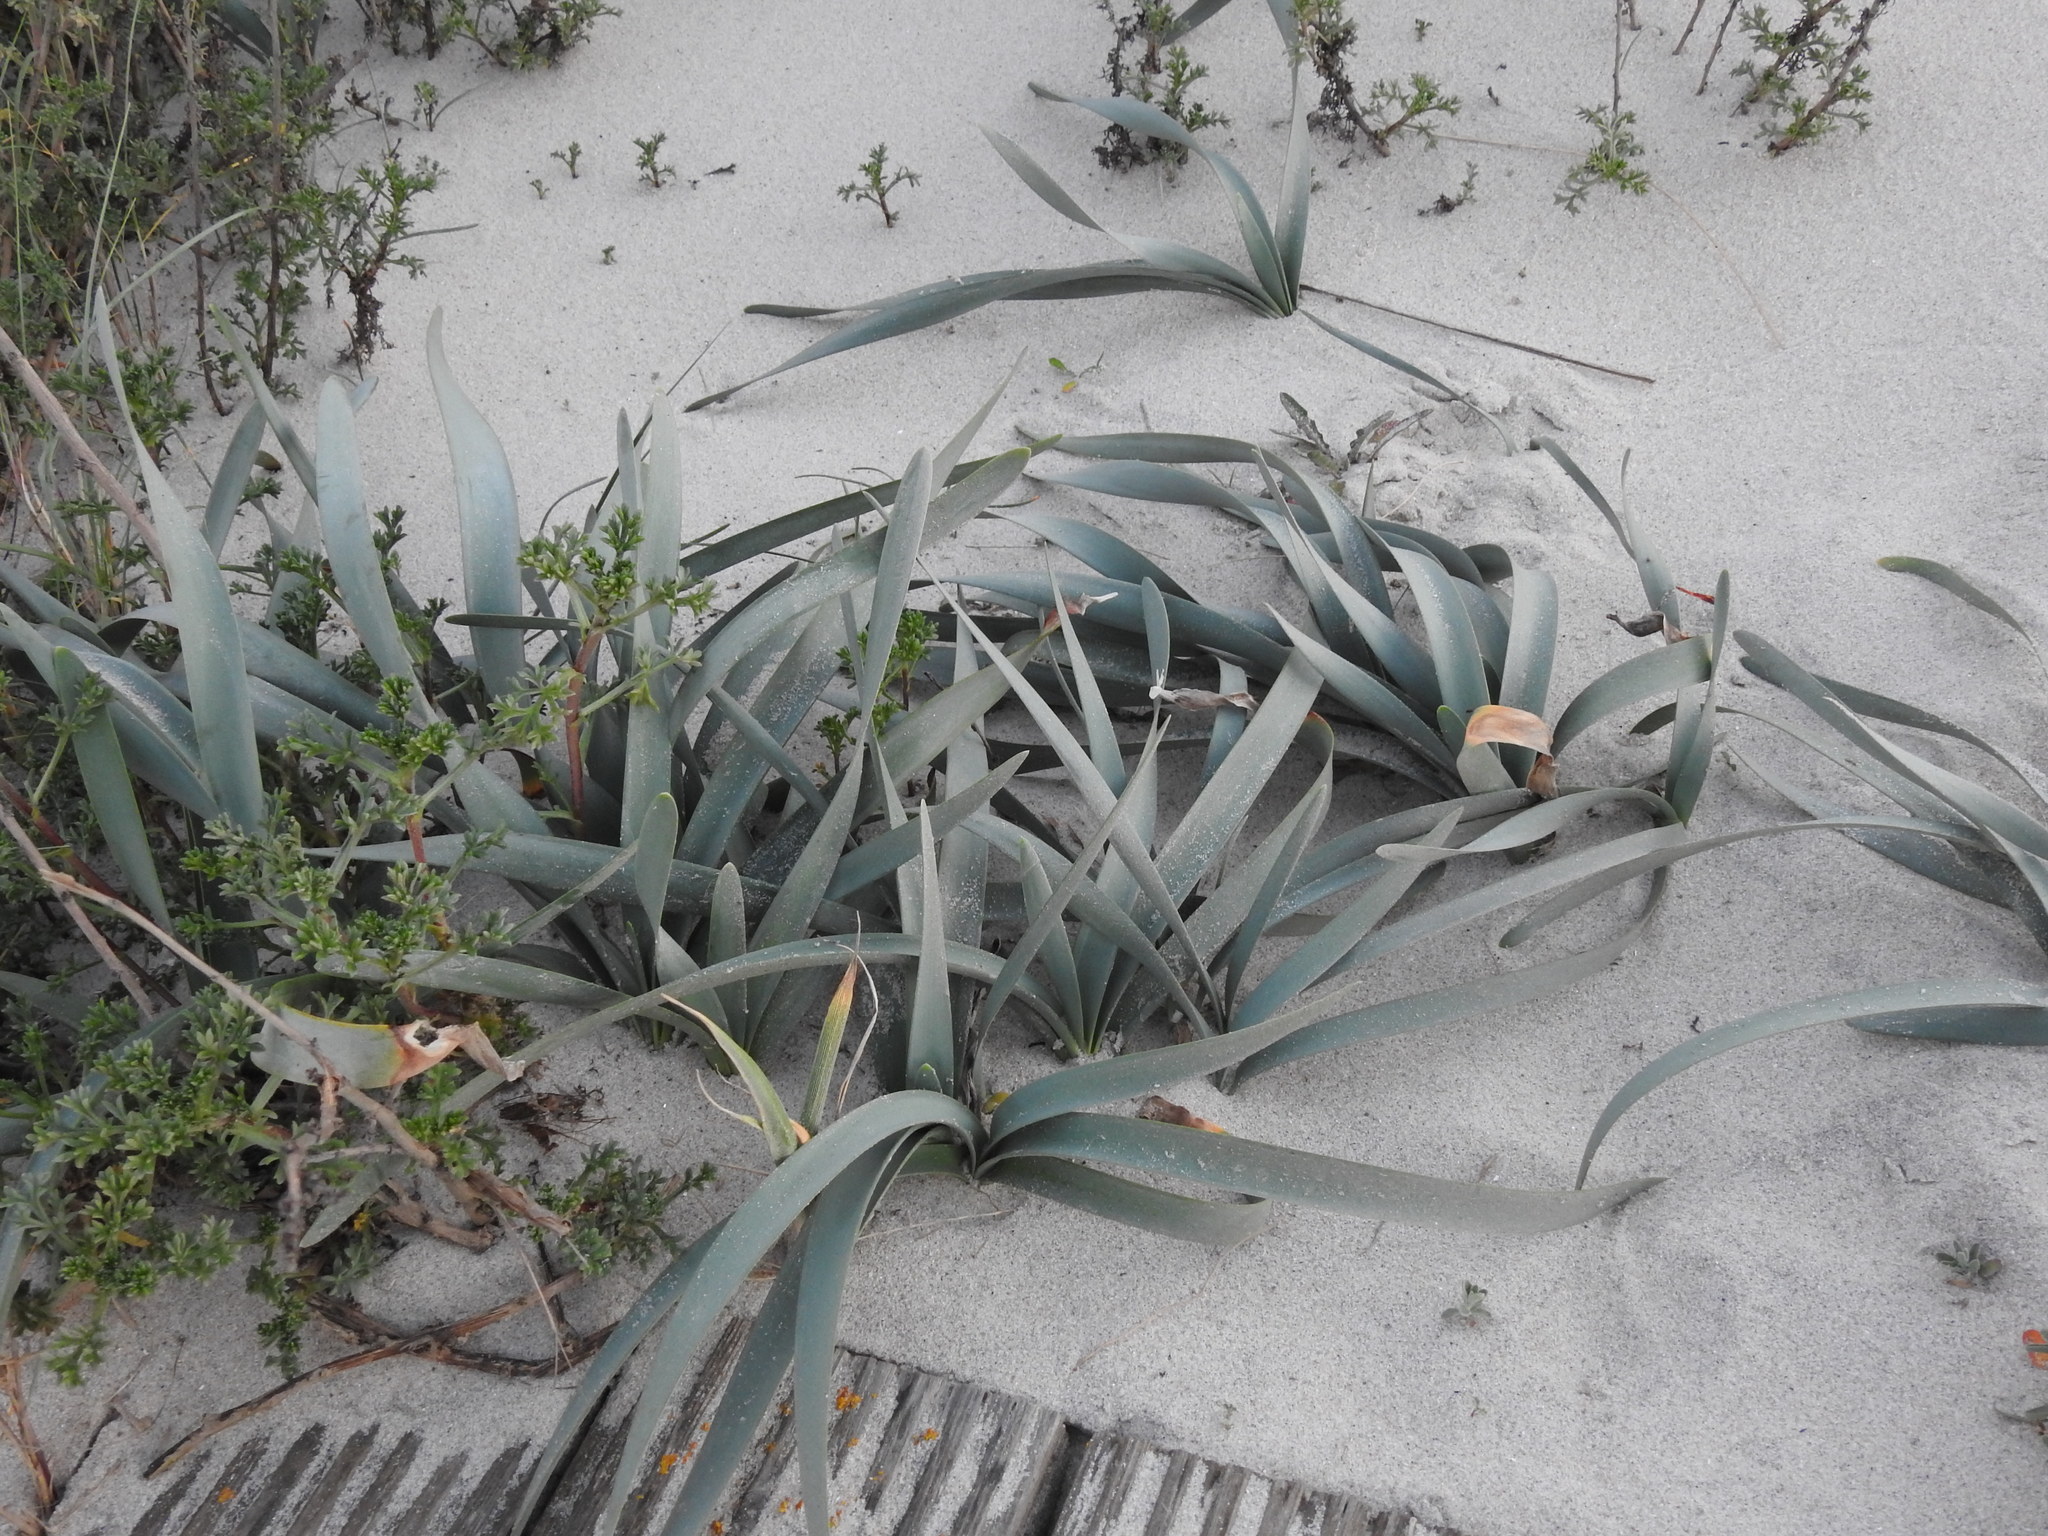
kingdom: Plantae
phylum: Tracheophyta
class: Liliopsida
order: Asparagales
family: Amaryllidaceae
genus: Pancratium
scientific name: Pancratium maritimum
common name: Sea-daffodil
